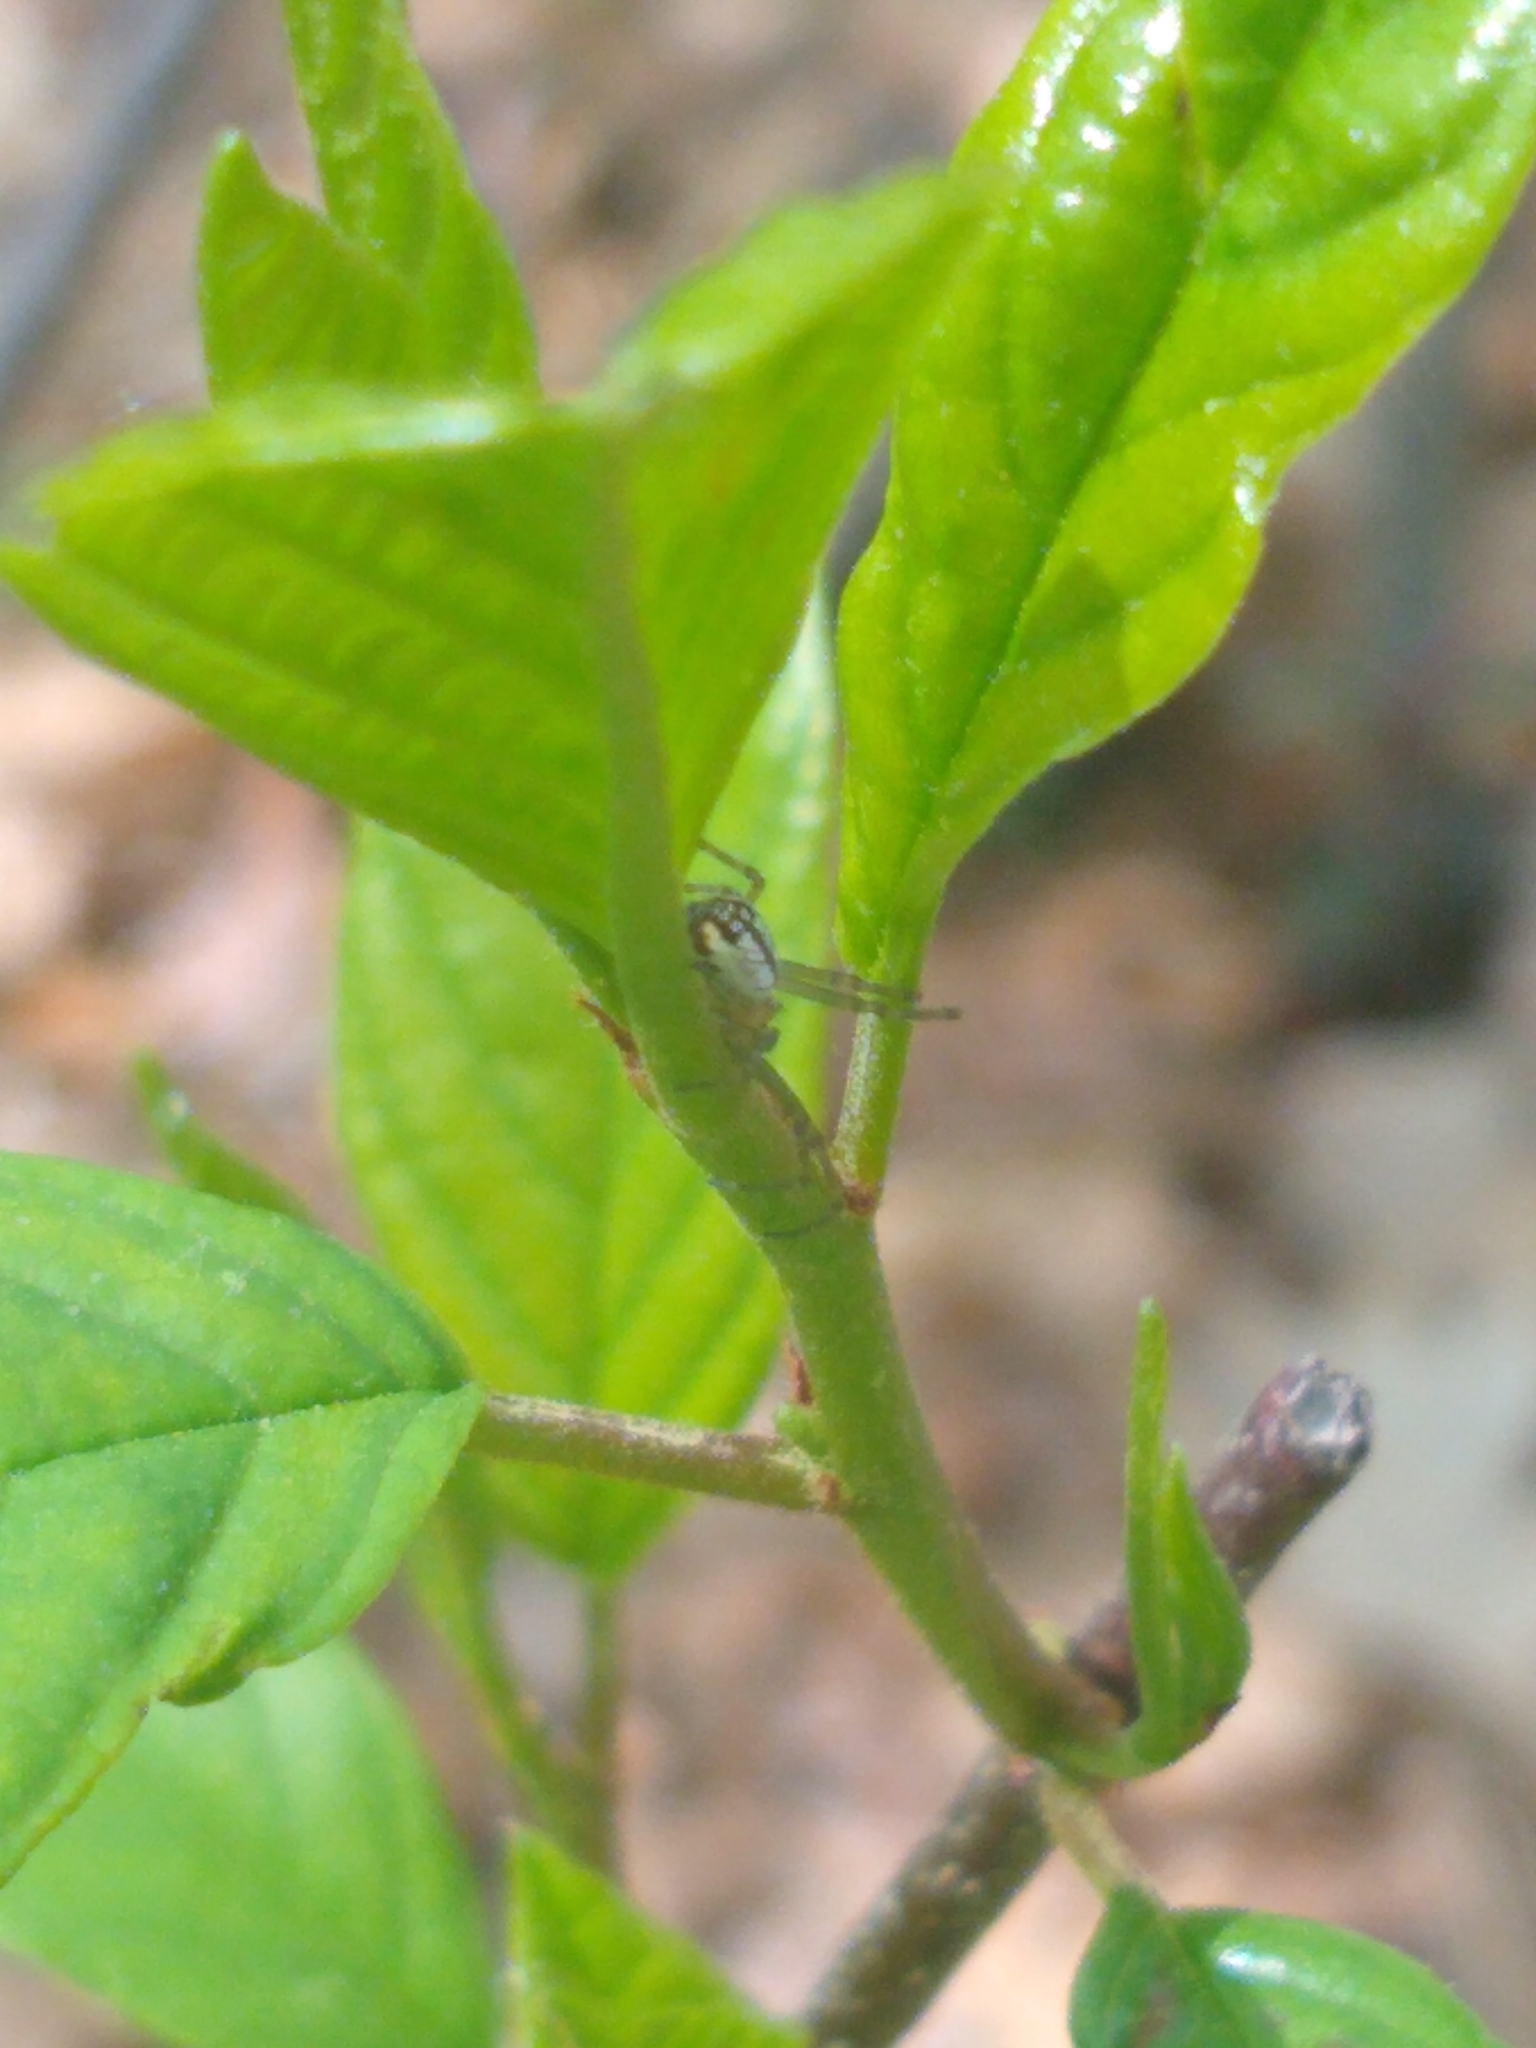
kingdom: Animalia
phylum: Arthropoda
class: Arachnida
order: Araneae
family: Tetragnathidae
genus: Leucauge
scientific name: Leucauge venusta
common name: Longjawed orb weavers
